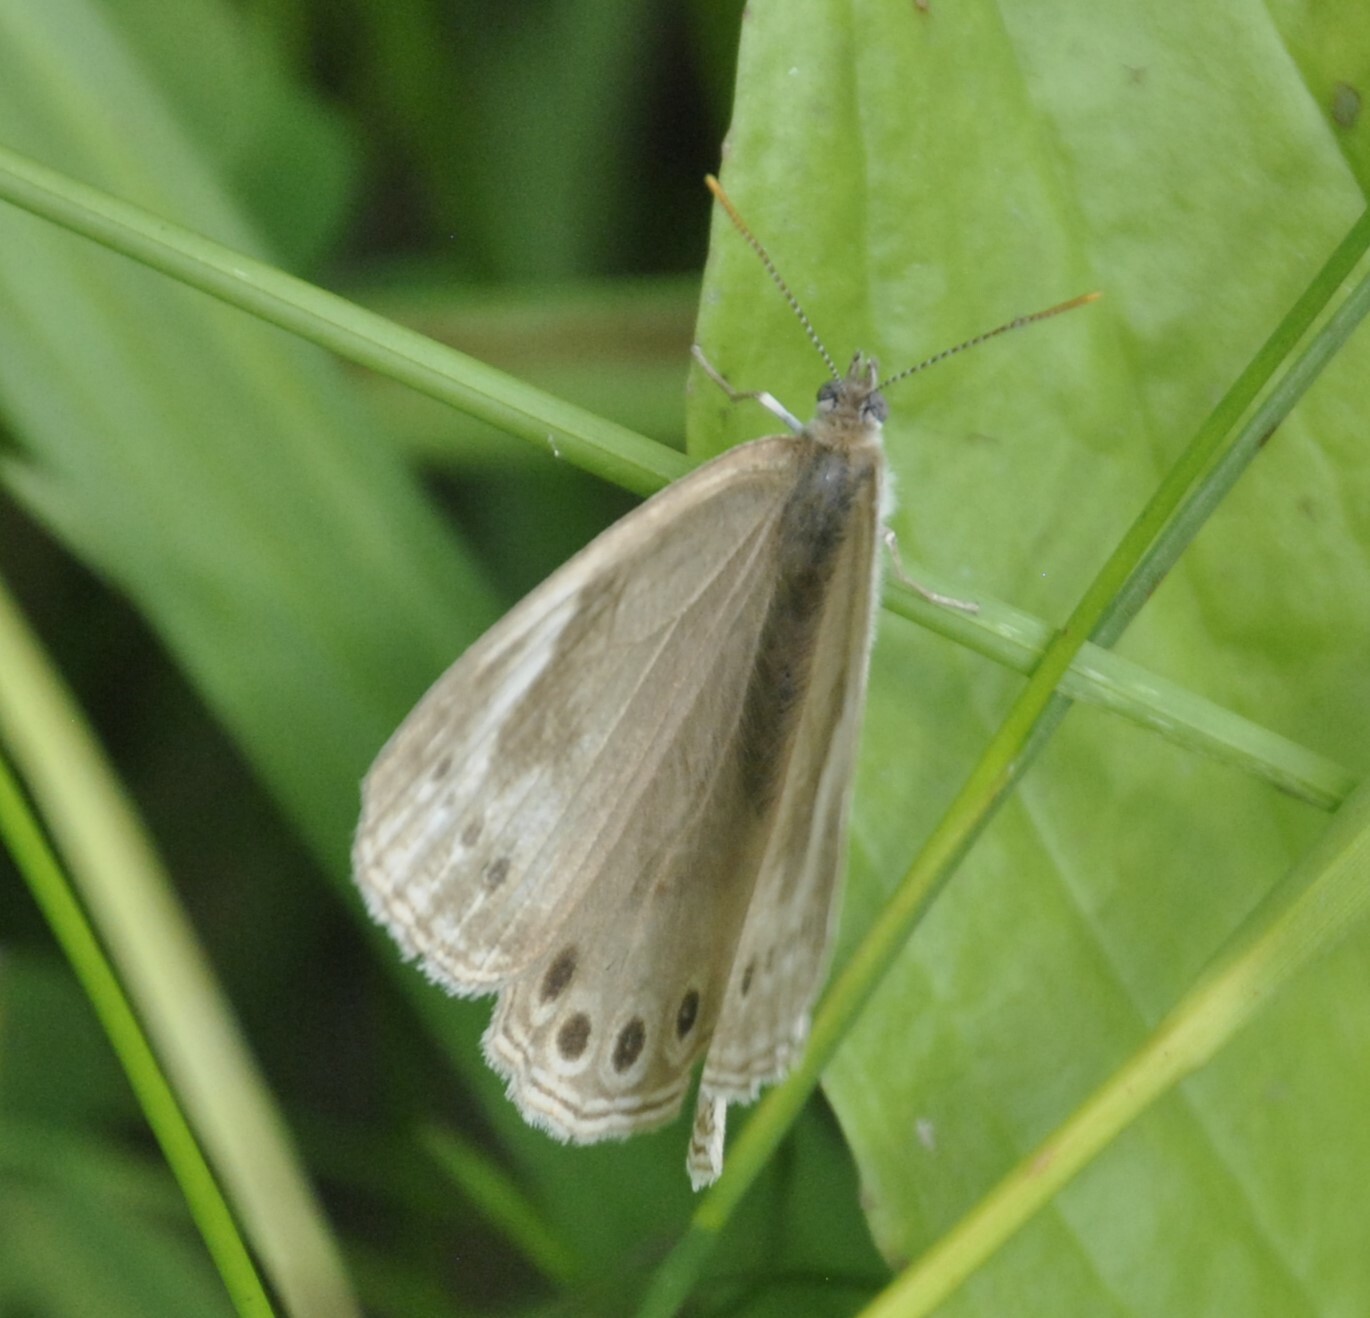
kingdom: Animalia
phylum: Arthropoda
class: Insecta
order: Lepidoptera
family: Nymphalidae
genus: Lethe
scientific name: Lethe eurydice
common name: Eyed brown
